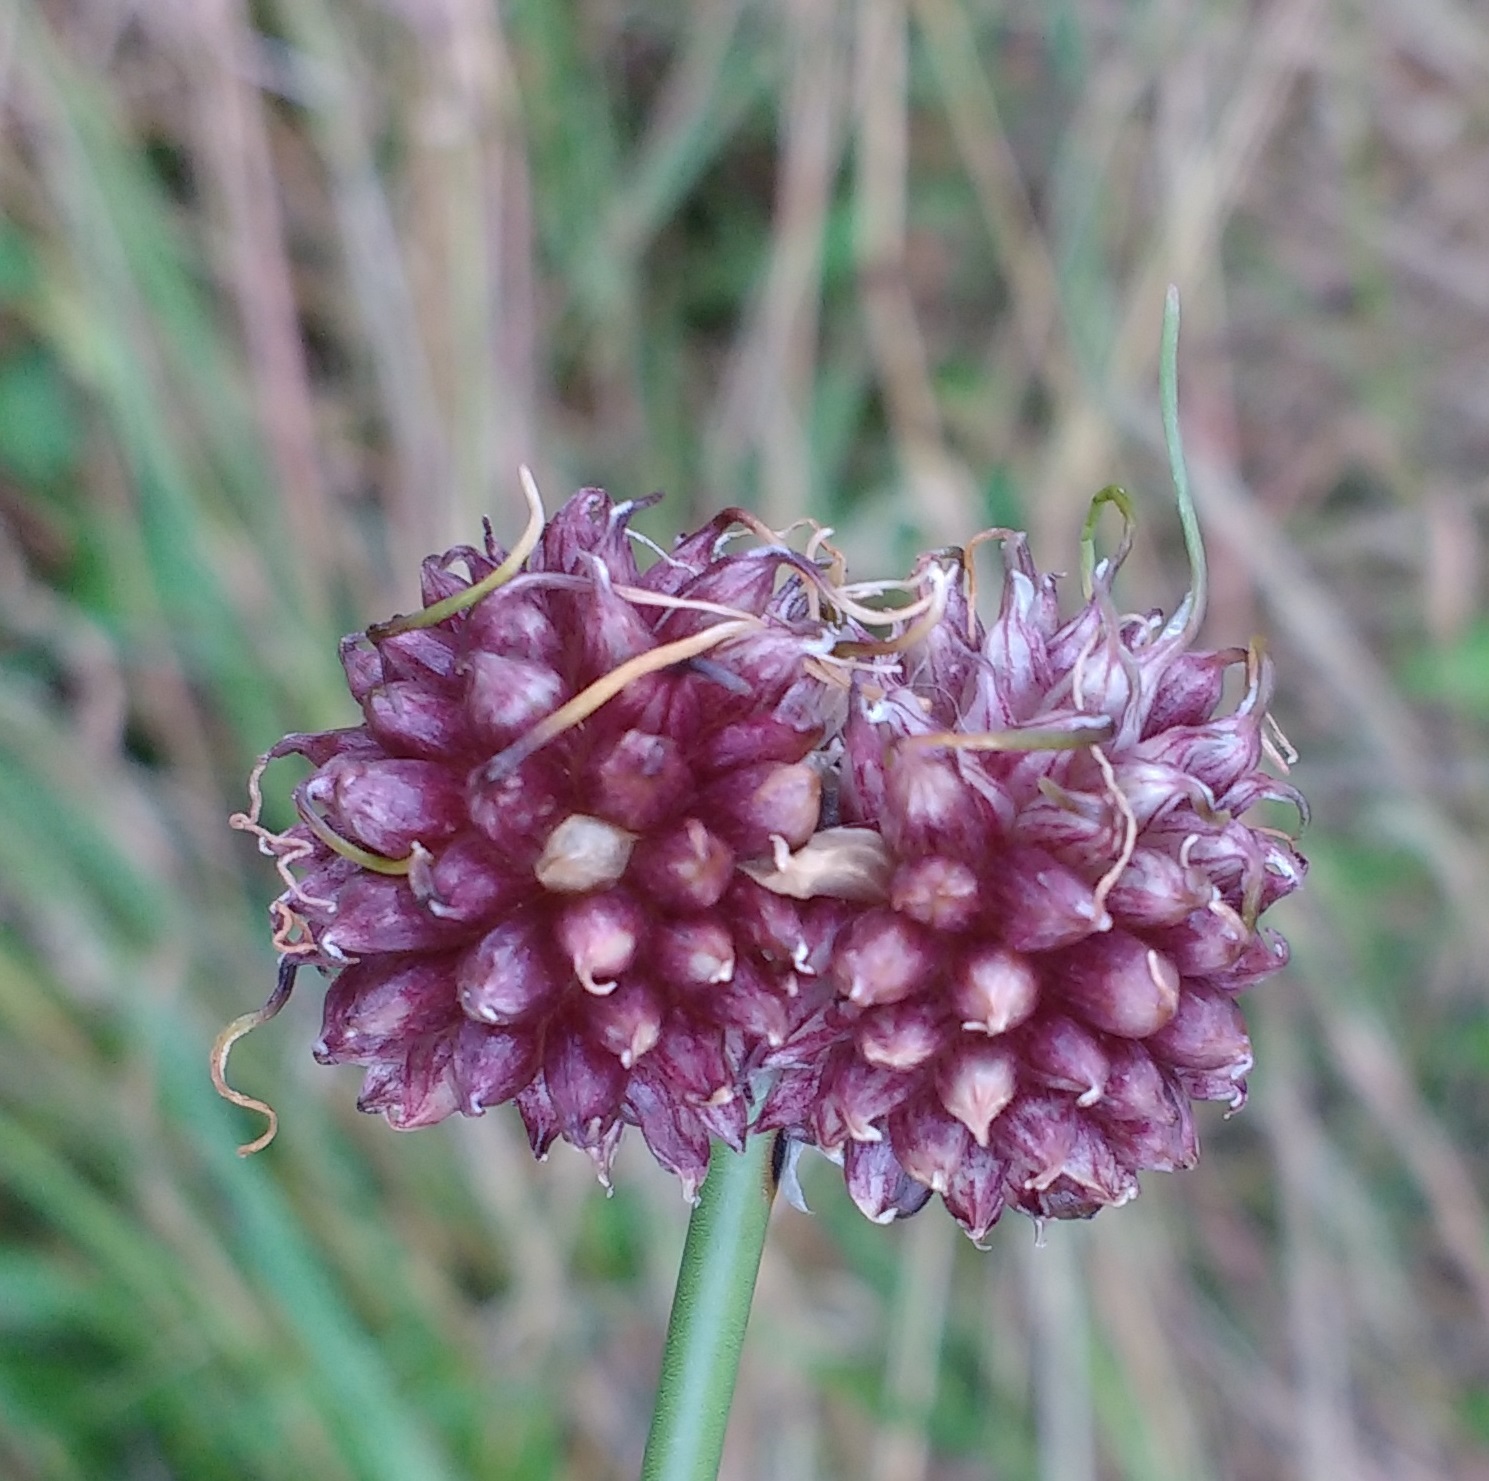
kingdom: Plantae
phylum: Tracheophyta
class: Liliopsida
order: Asparagales
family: Amaryllidaceae
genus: Allium
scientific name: Allium vineale
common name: Crow garlic
